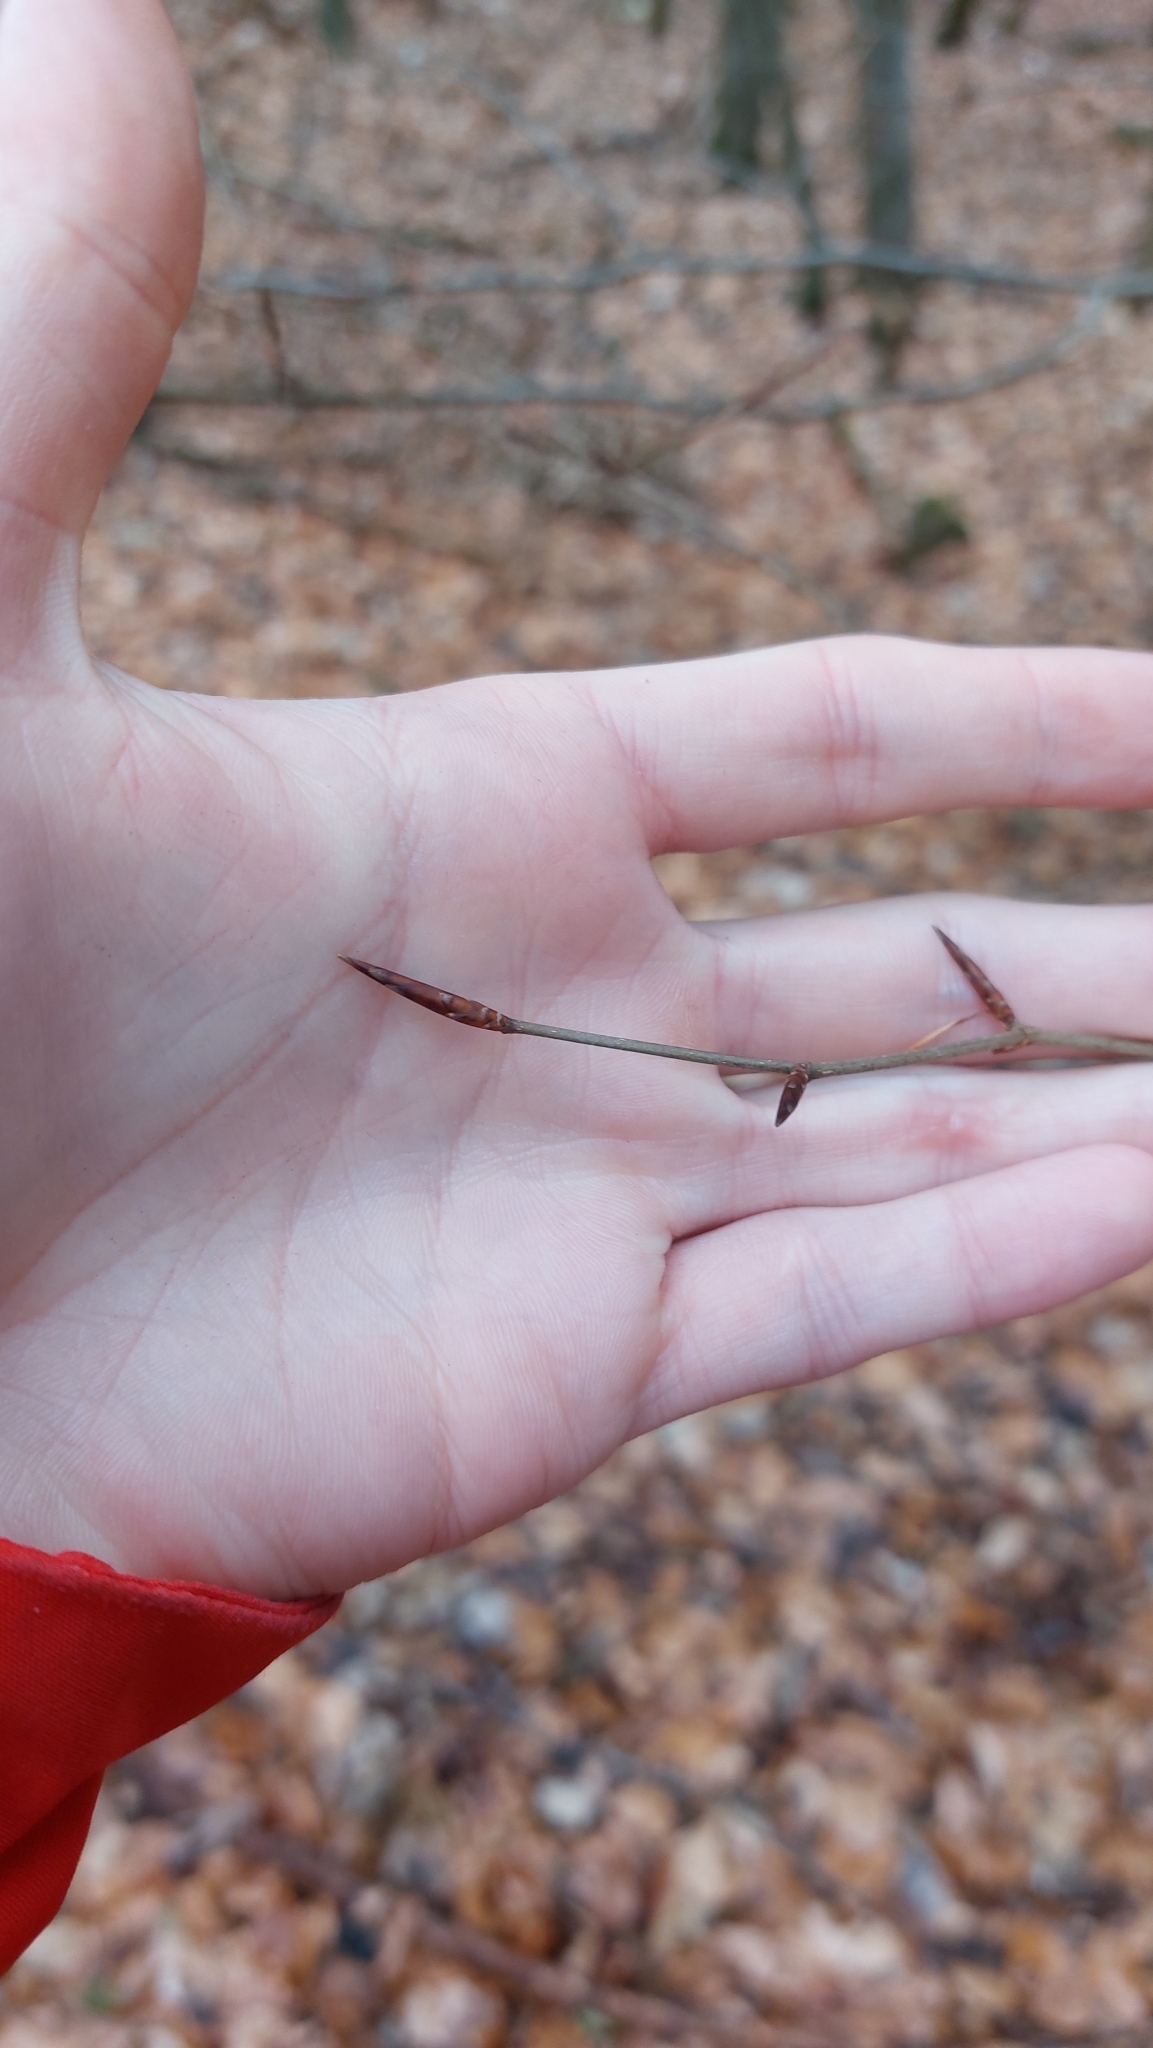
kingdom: Plantae
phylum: Tracheophyta
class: Magnoliopsida
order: Fagales
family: Fagaceae
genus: Fagus
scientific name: Fagus sylvatica
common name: Beech
